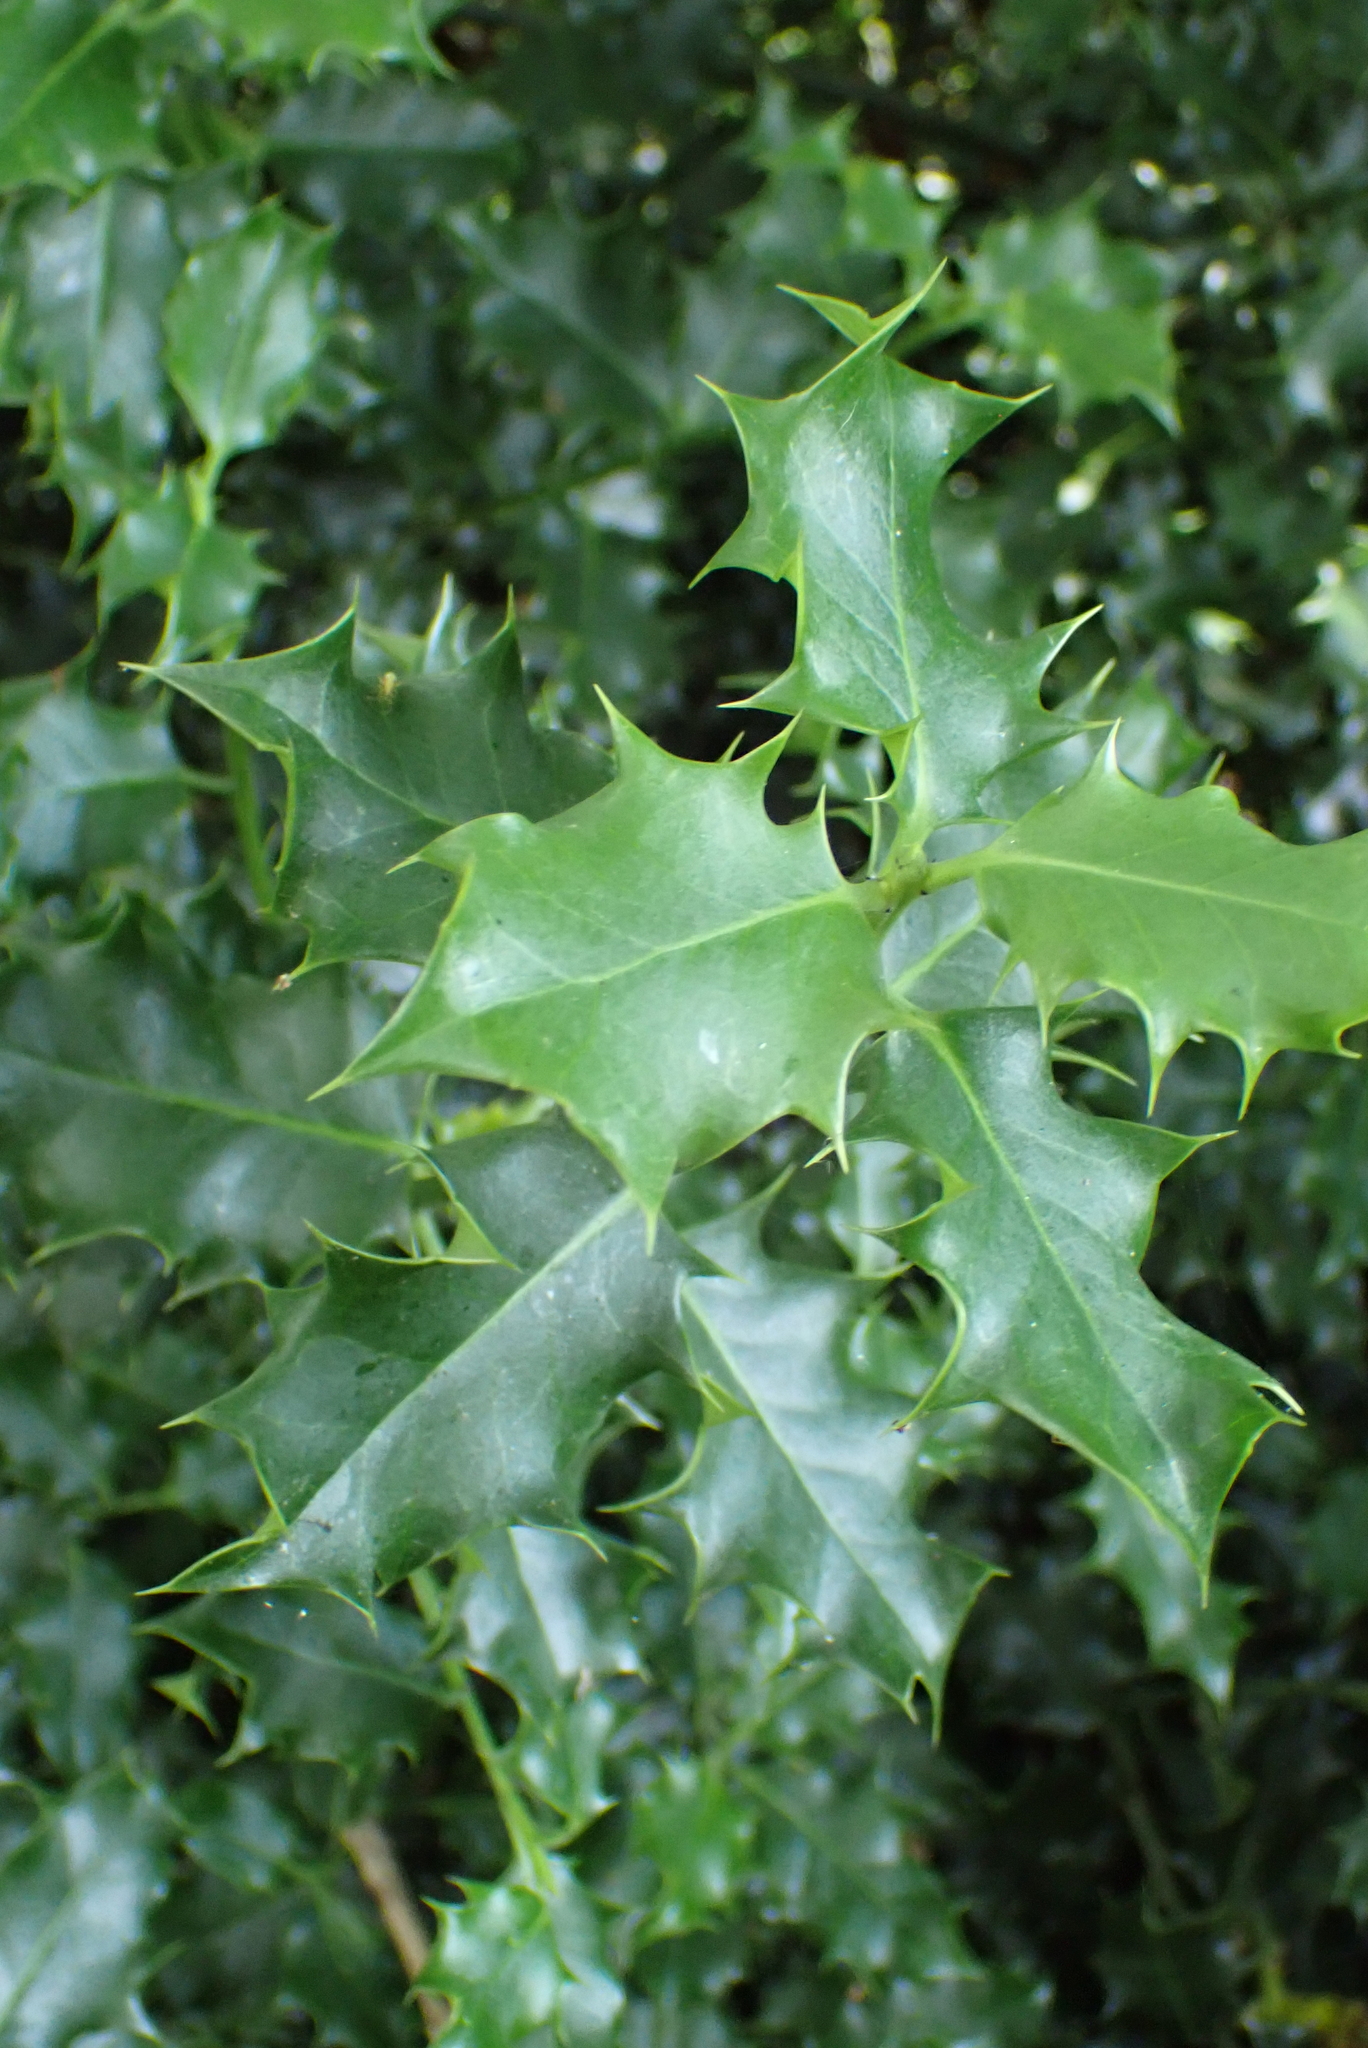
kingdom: Plantae
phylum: Tracheophyta
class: Magnoliopsida
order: Aquifoliales
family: Aquifoliaceae
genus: Ilex
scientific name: Ilex aquifolium
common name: English holly
